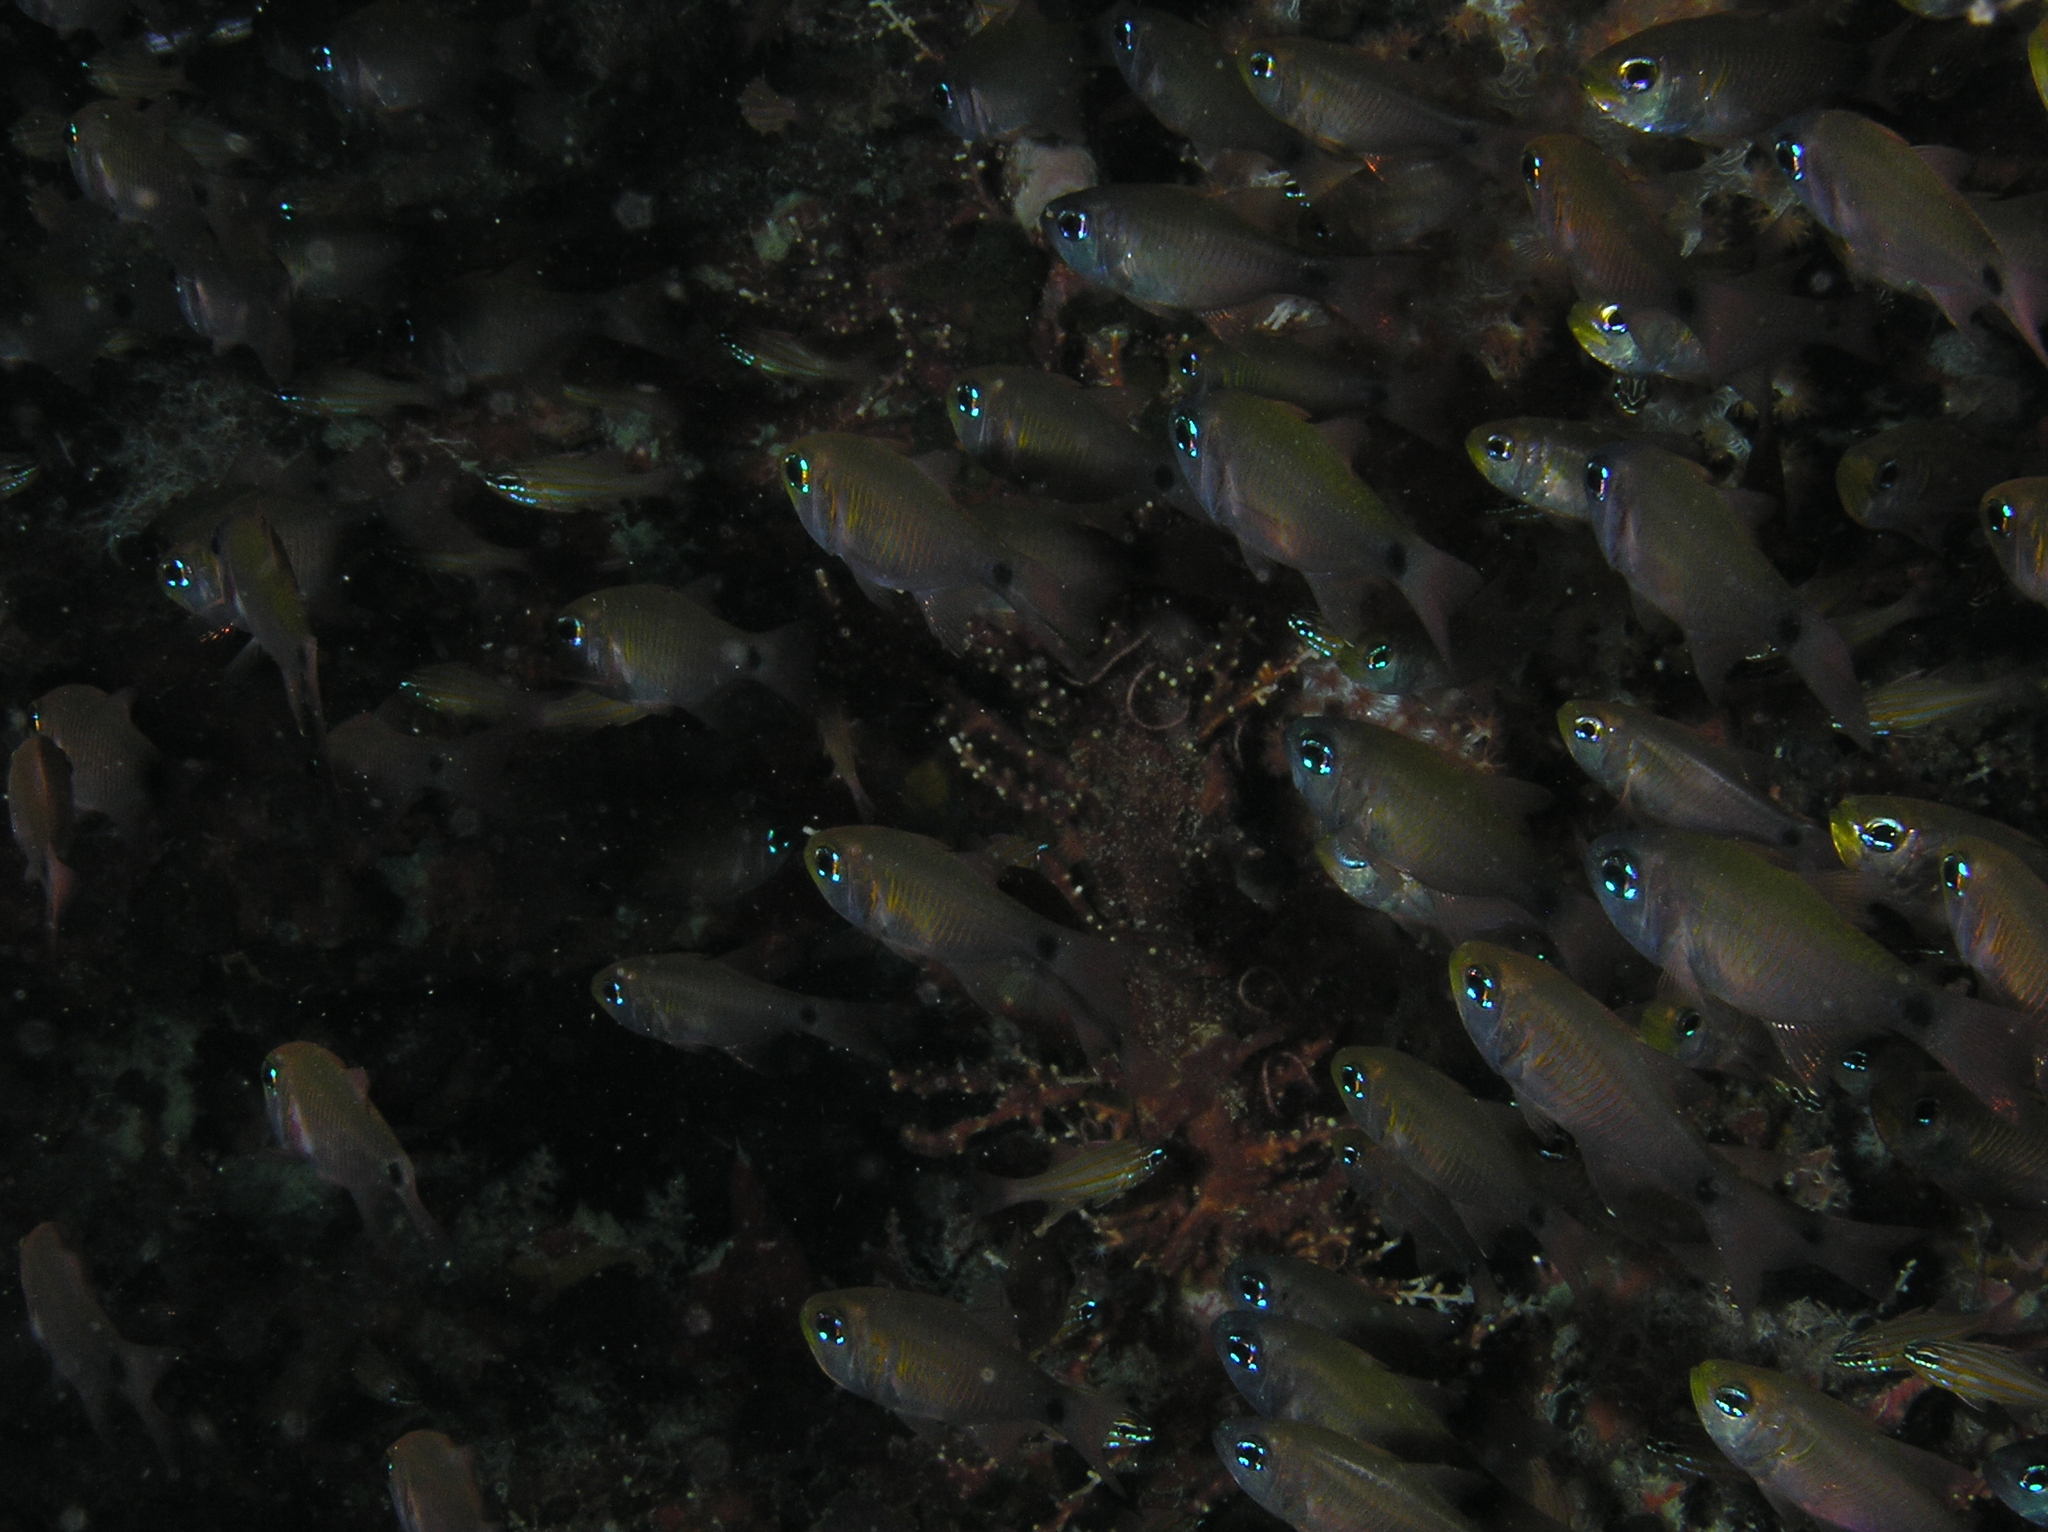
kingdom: Animalia
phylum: Chordata
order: Perciformes
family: Apogonidae
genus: Taeniamia
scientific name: Taeniamia fucata
